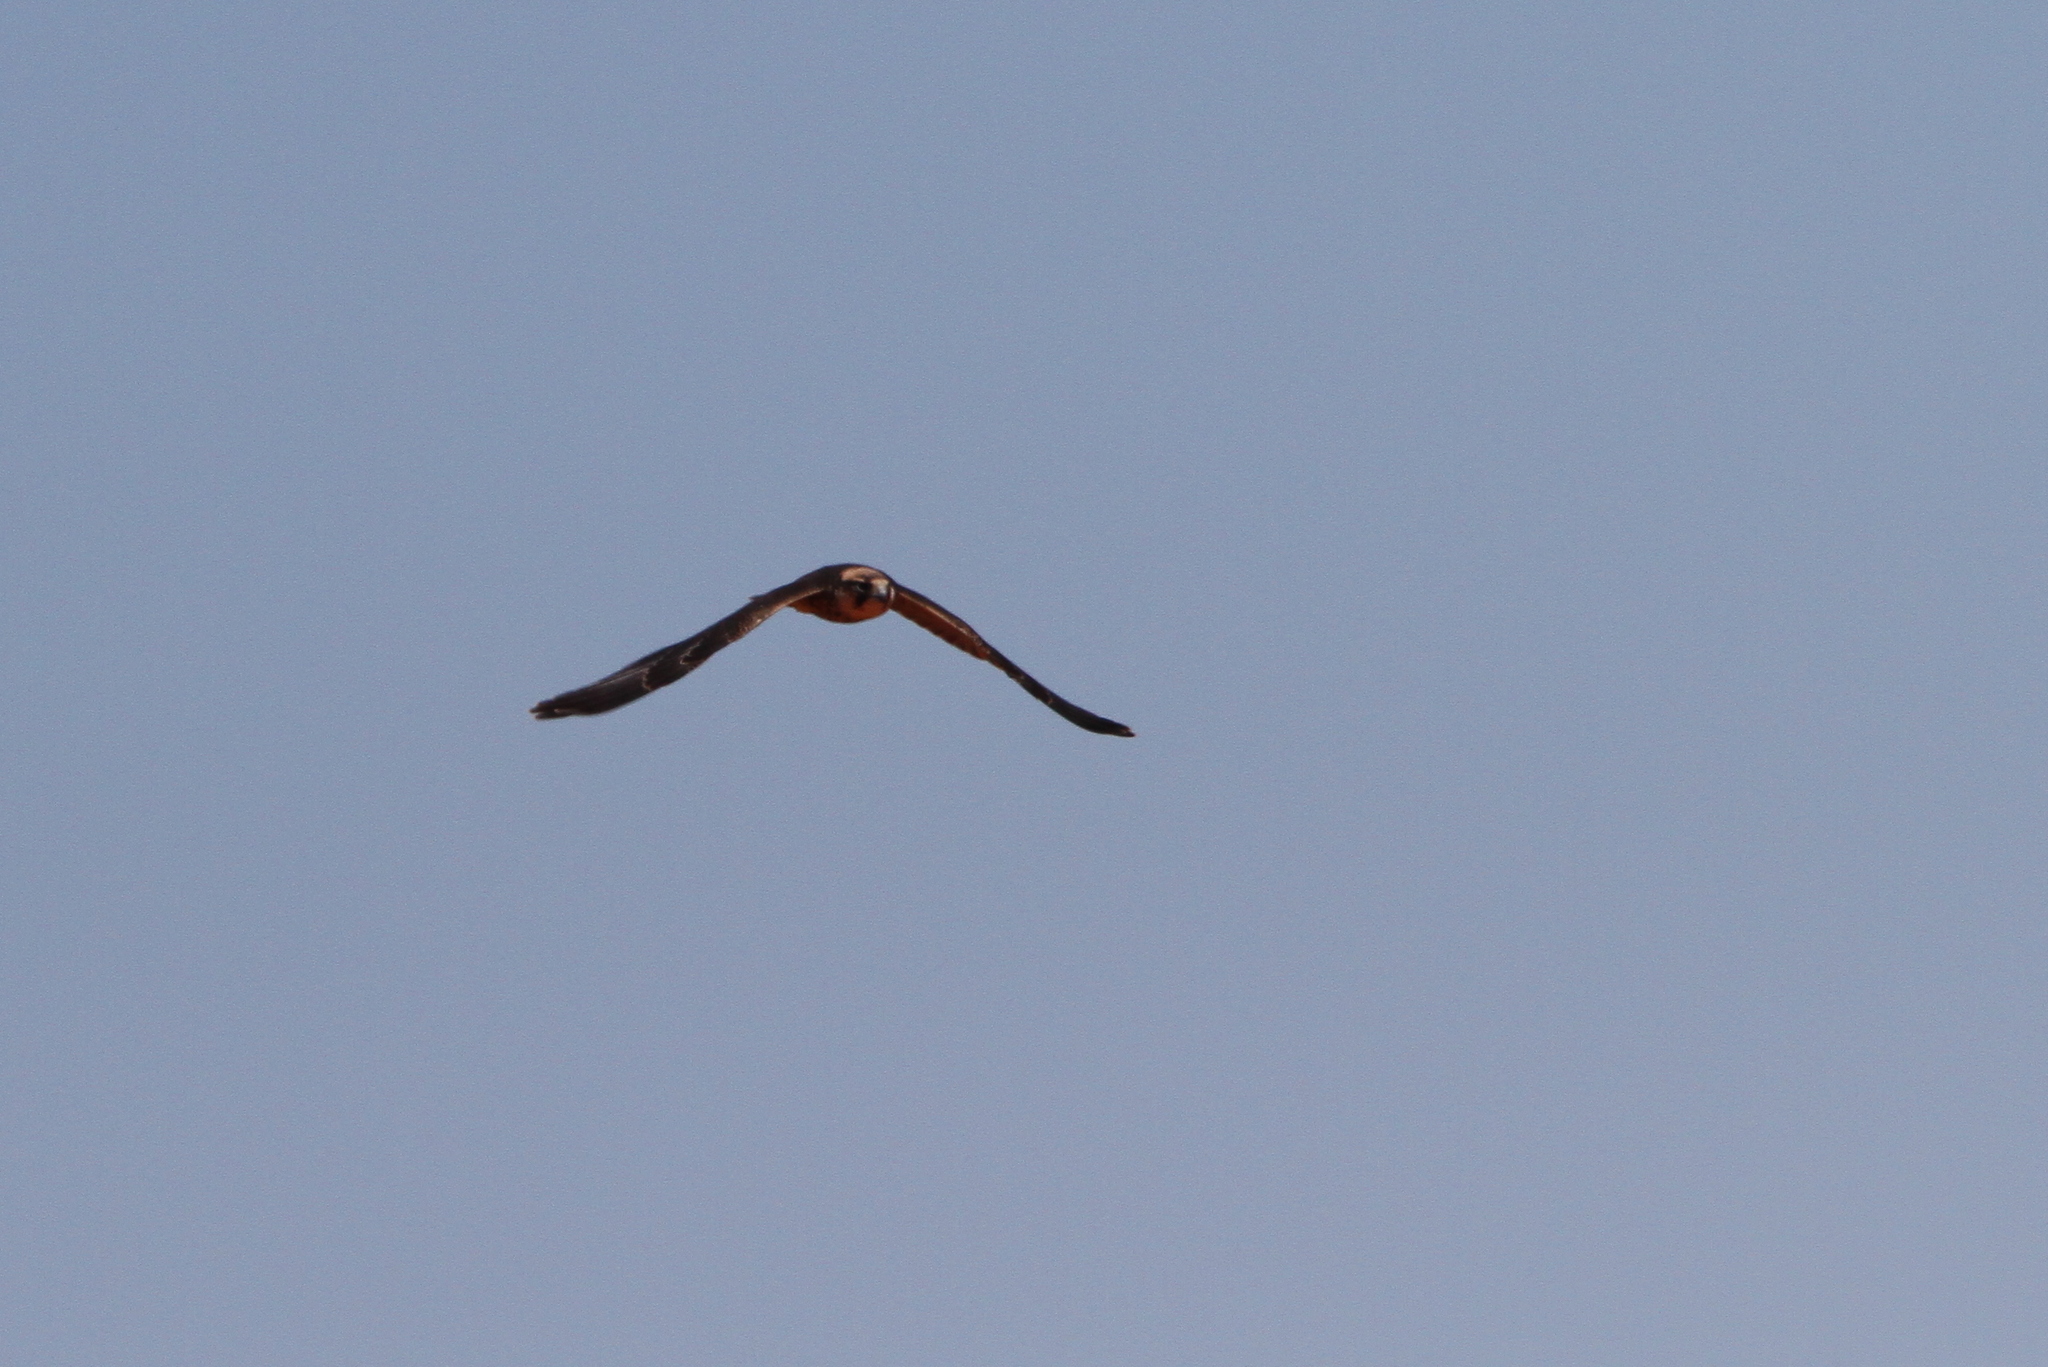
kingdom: Animalia
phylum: Chordata
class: Aves
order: Falconiformes
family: Falconidae
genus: Falco
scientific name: Falco biarmicus
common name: Lanner falcon
